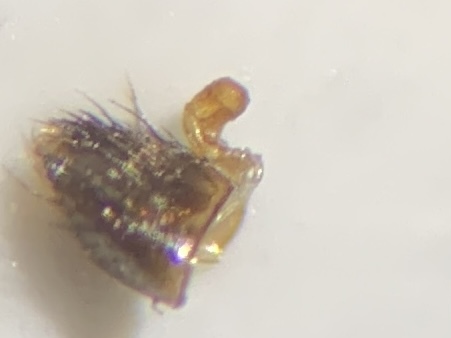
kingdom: Animalia
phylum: Arthropoda
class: Insecta
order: Coleoptera
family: Staphylinidae
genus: Aleochara
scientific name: Aleochara bipustulata
